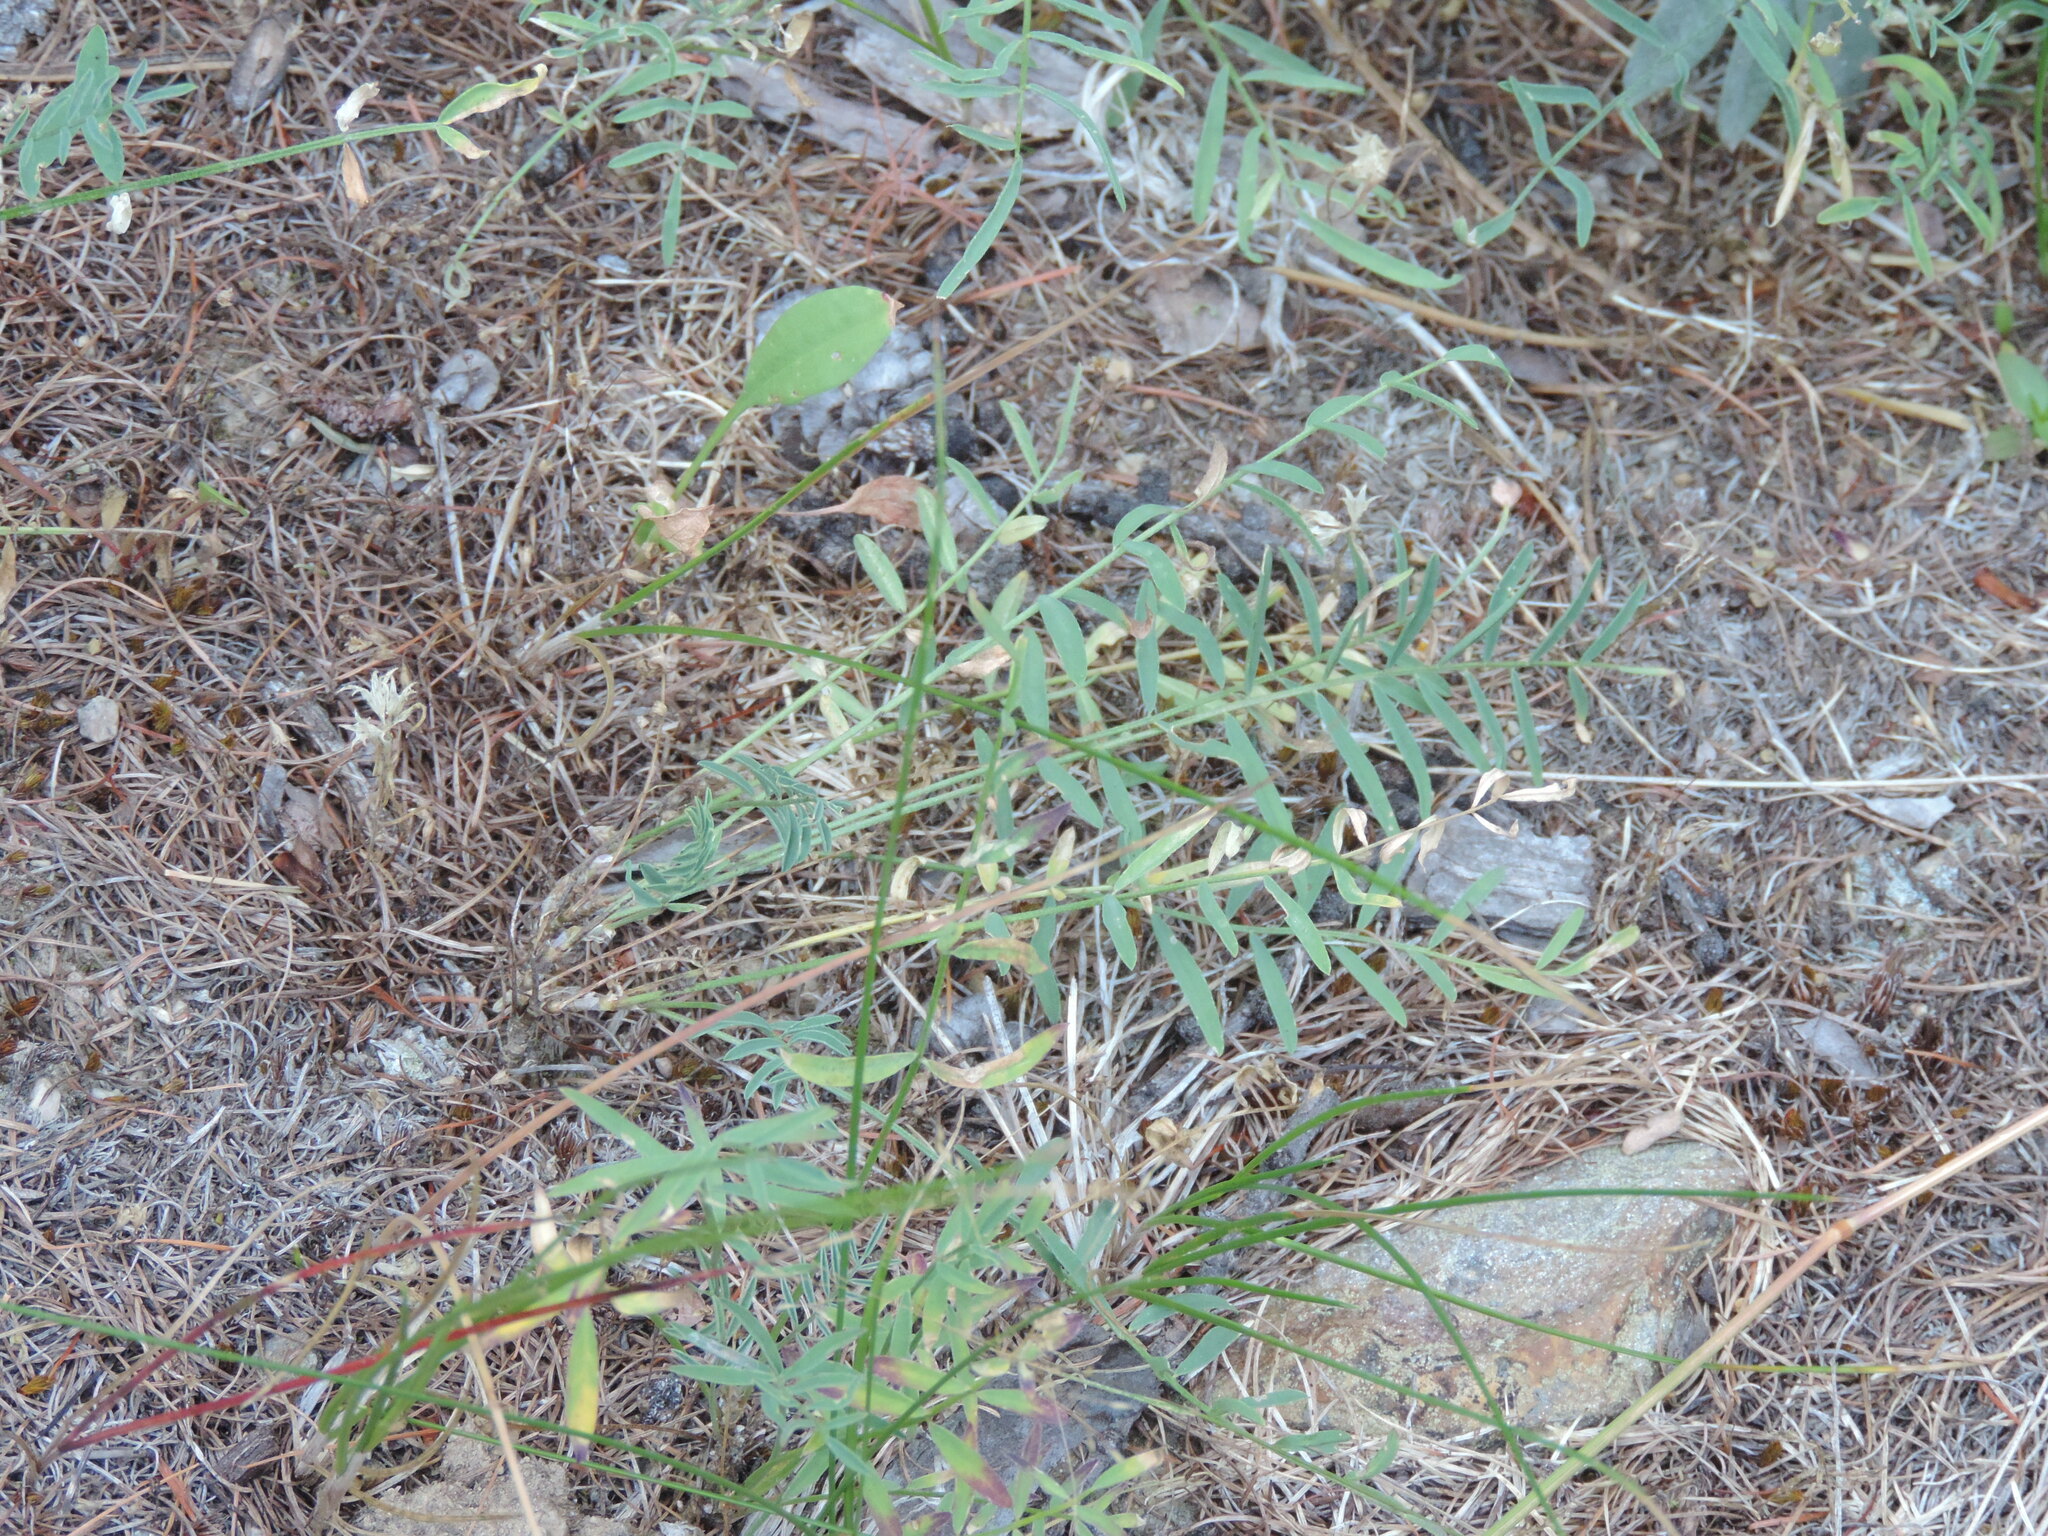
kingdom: Plantae
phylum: Tracheophyta
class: Magnoliopsida
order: Fabales
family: Fabaceae
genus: Astragalus
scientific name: Astragalus miser
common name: Timber milkvetch
